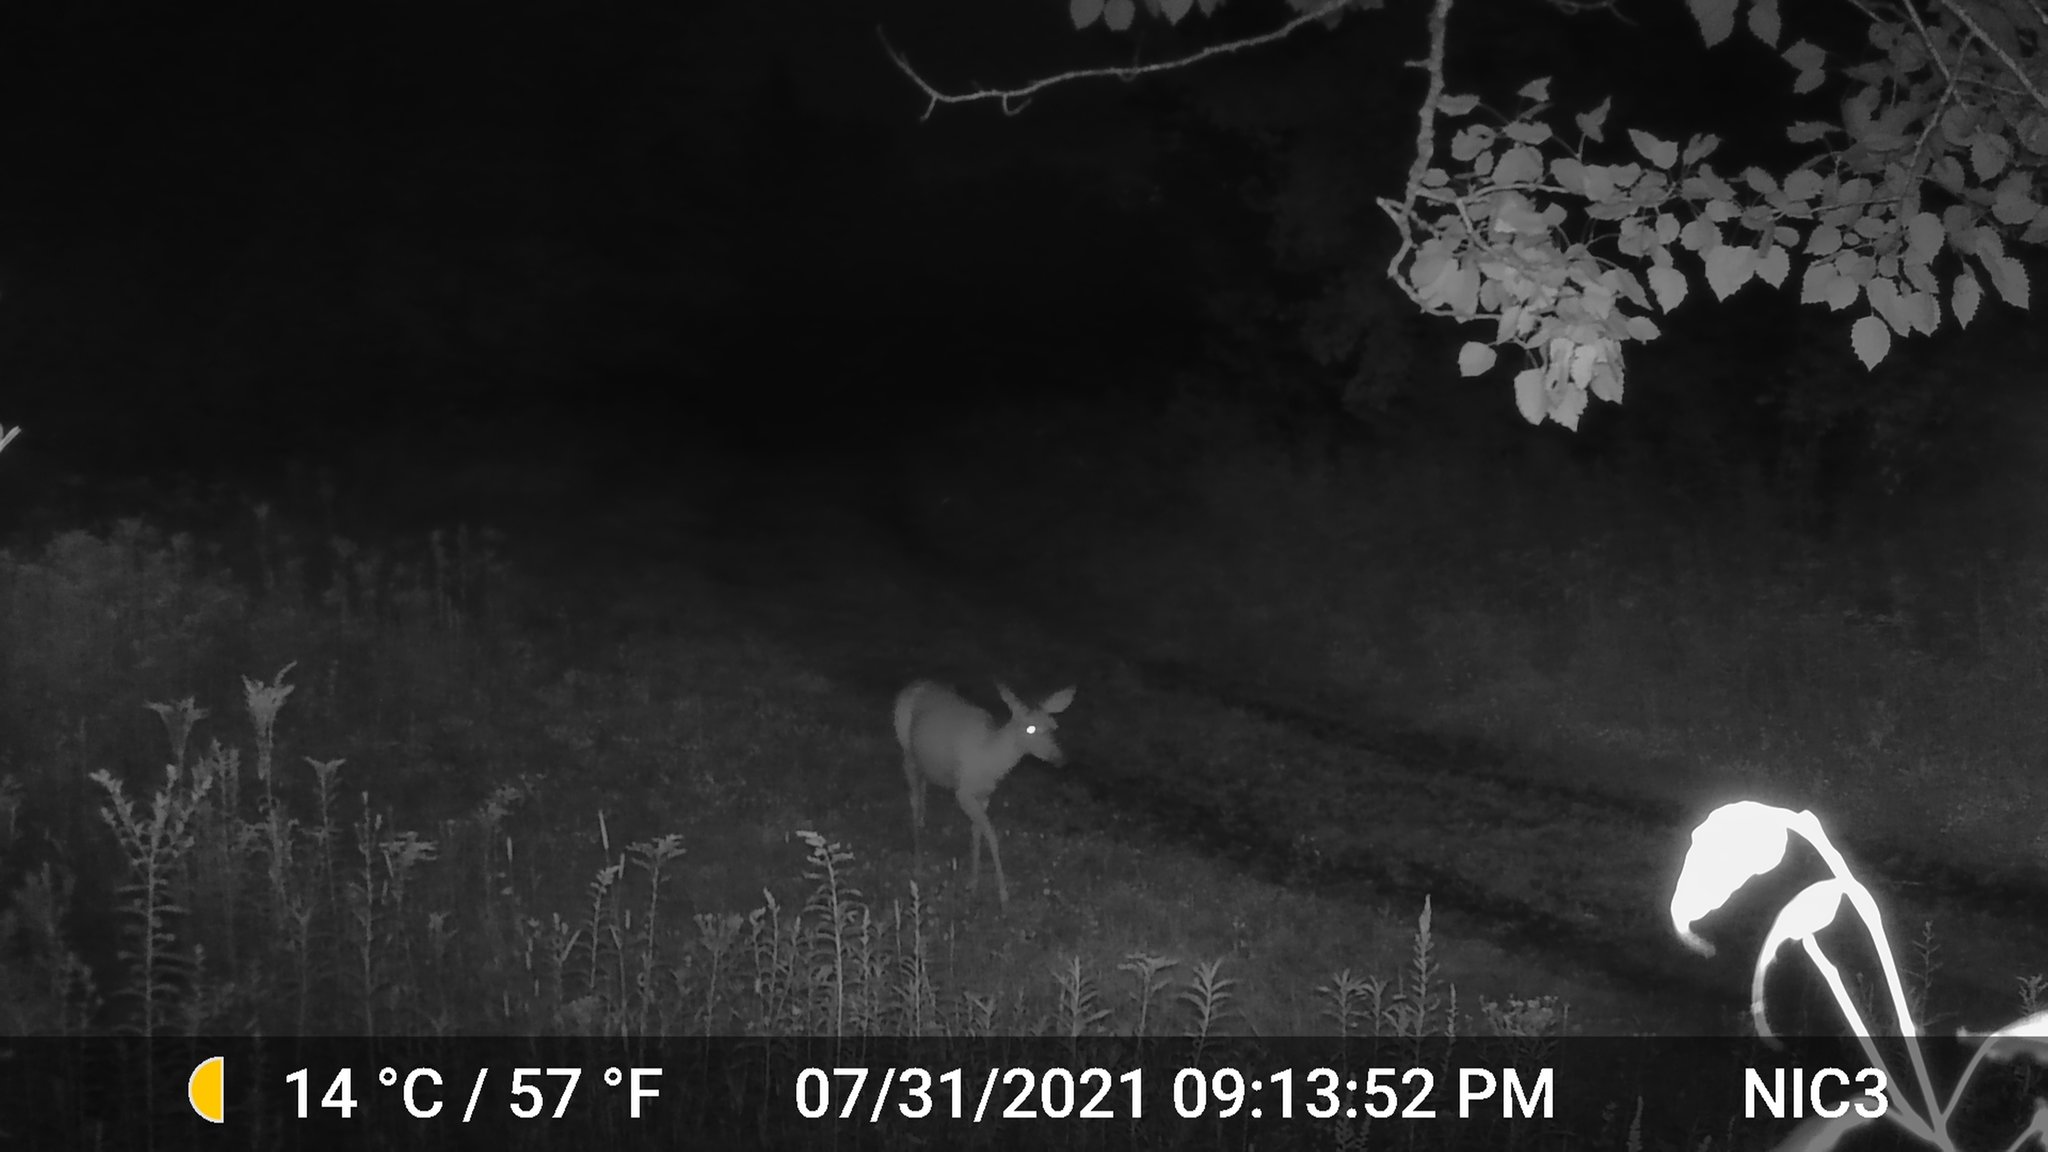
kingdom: Animalia
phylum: Chordata
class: Mammalia
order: Artiodactyla
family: Cervidae
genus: Odocoileus
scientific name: Odocoileus virginianus
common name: White-tailed deer
